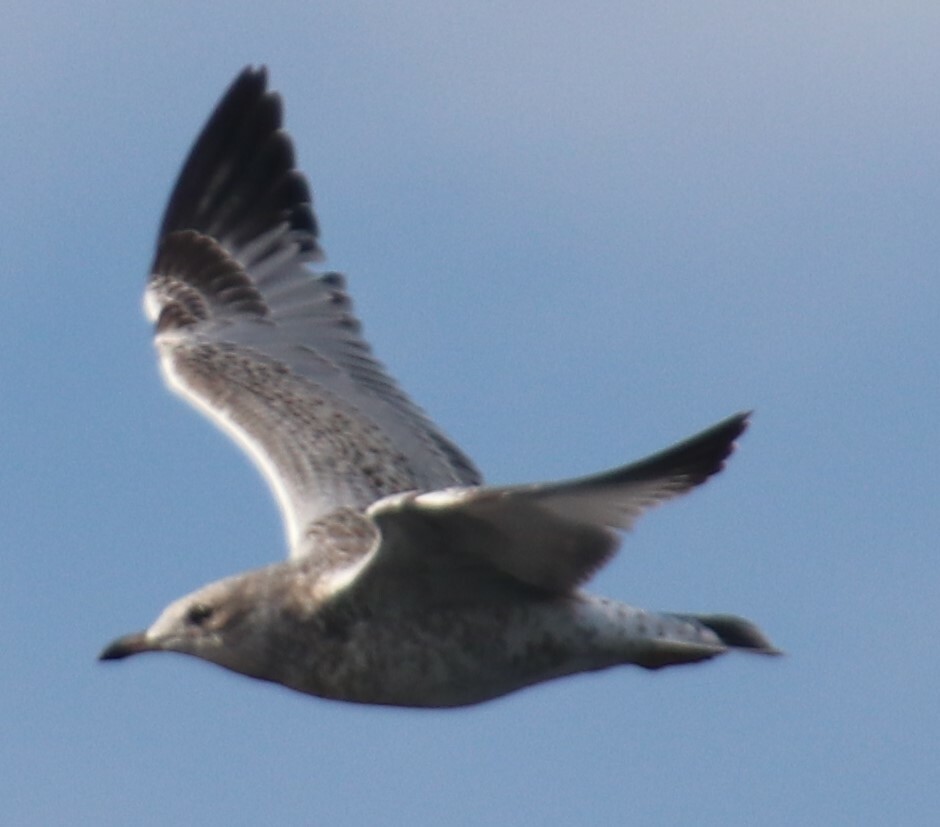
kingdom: Animalia
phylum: Chordata
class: Aves
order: Charadriiformes
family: Laridae
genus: Larus
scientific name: Larus delawarensis
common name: Ring-billed gull
